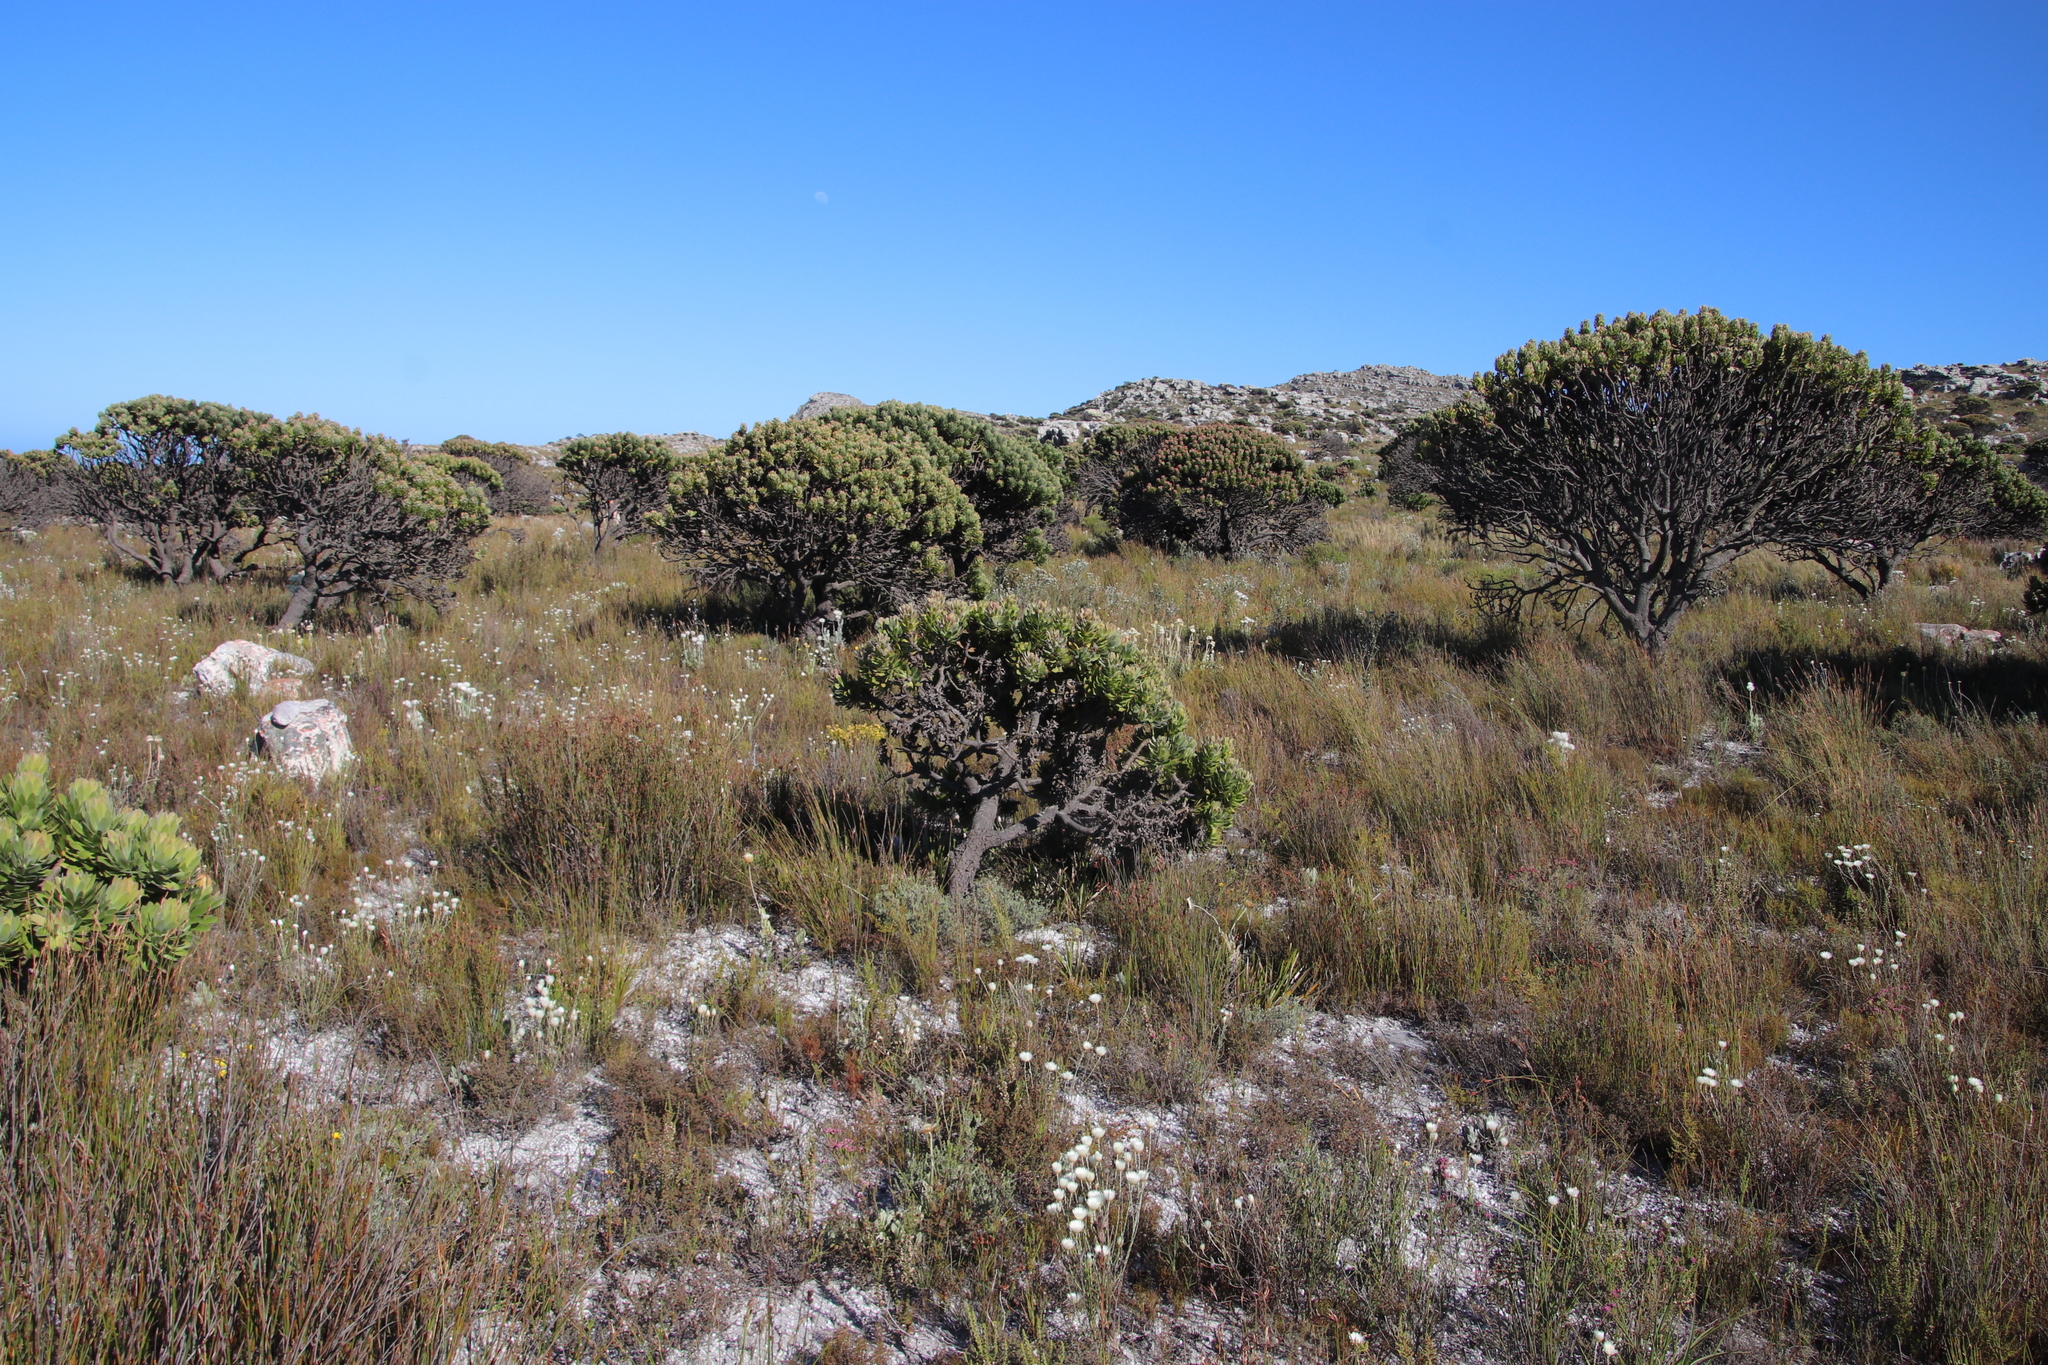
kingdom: Plantae
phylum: Tracheophyta
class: Magnoliopsida
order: Proteales
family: Proteaceae
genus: Mimetes
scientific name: Mimetes fimbriifolius
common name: Fringed bottlebrush
